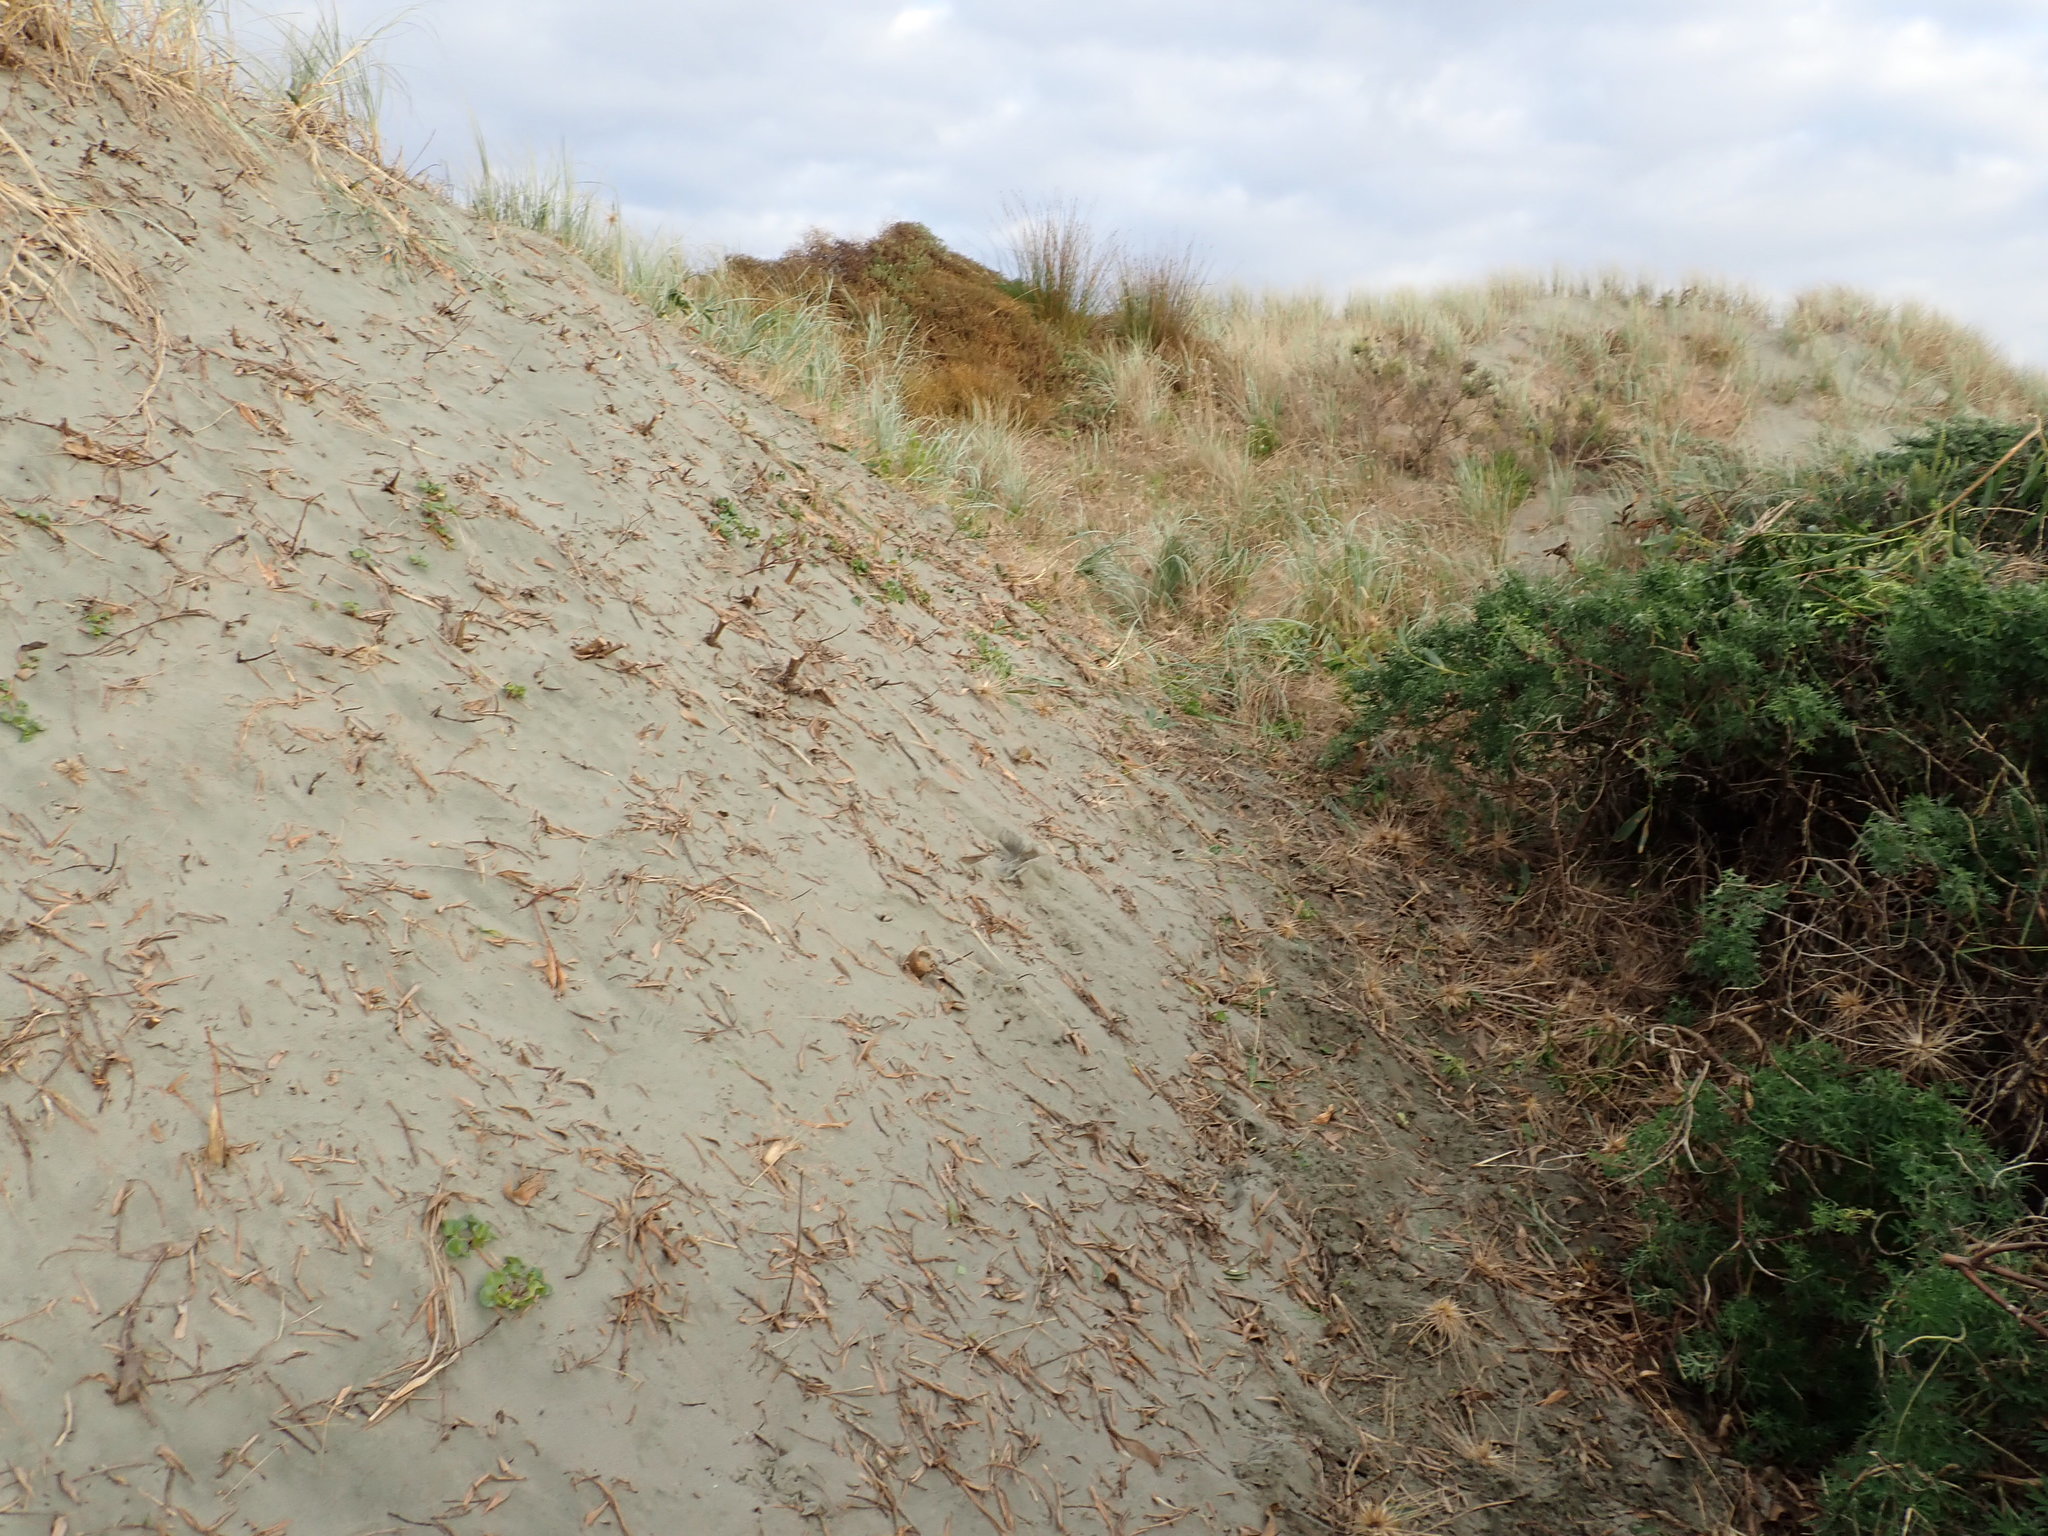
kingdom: Plantae
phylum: Tracheophyta
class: Liliopsida
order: Poales
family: Cyperaceae
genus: Ficinia
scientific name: Ficinia nodosa
